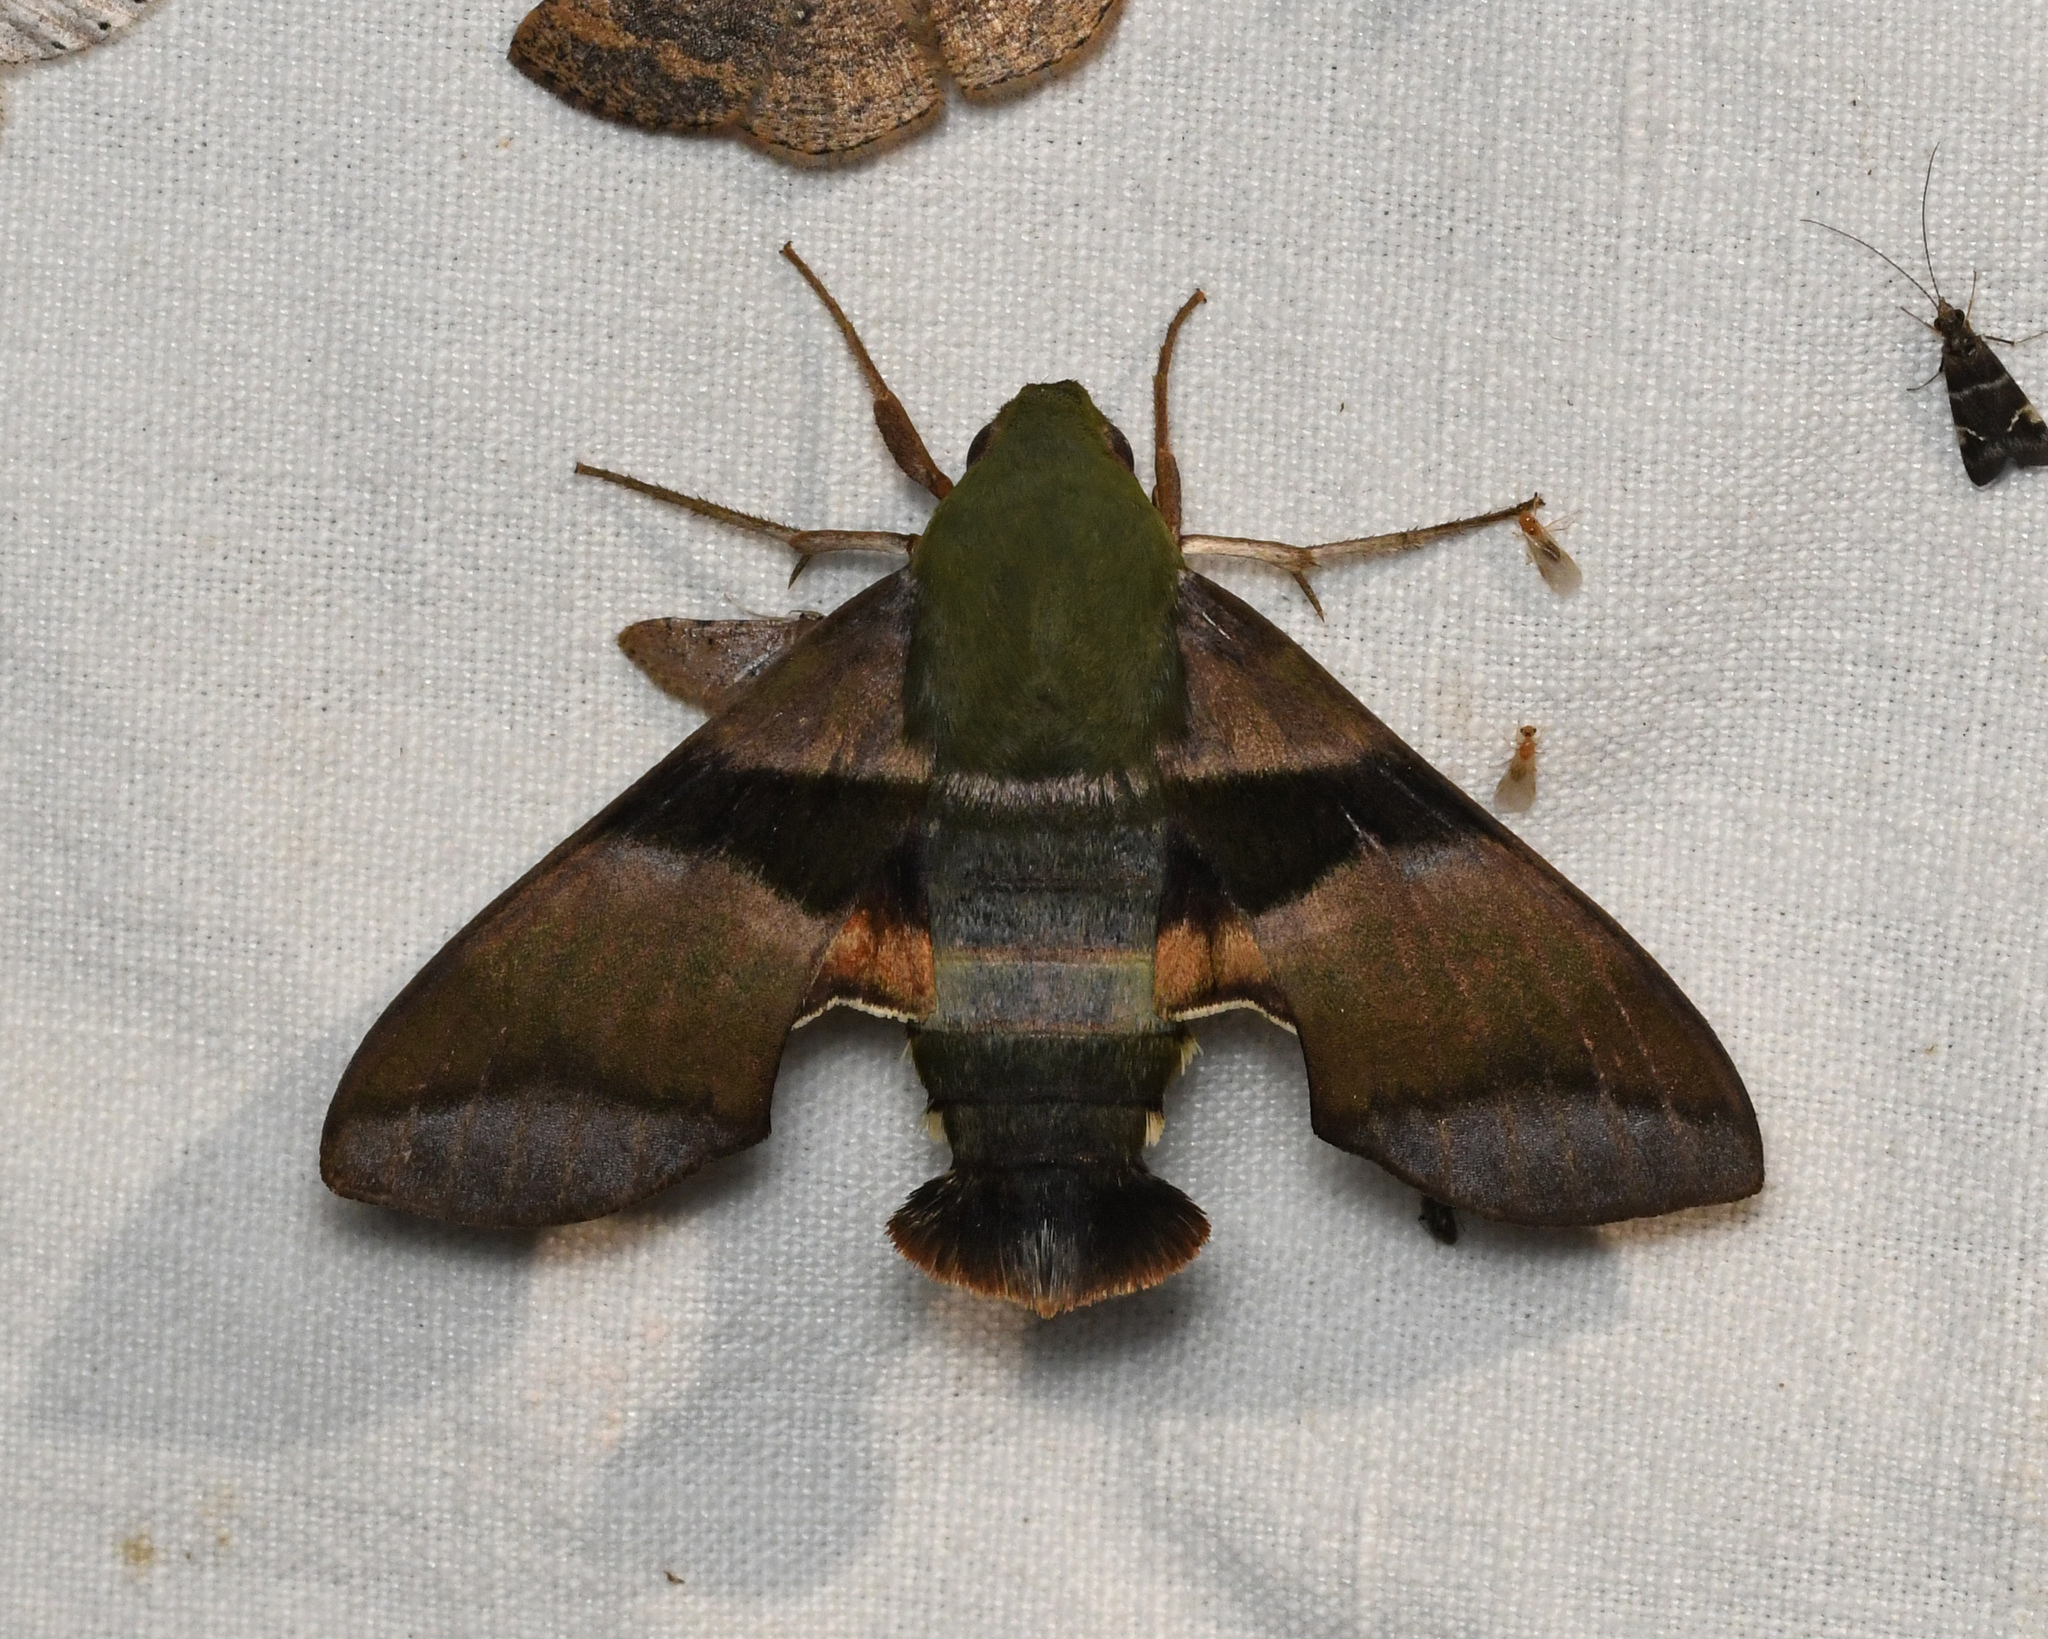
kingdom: Animalia
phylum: Arthropoda
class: Insecta
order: Lepidoptera
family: Sphingidae
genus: Perigonia
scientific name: Perigonia glaucescens
